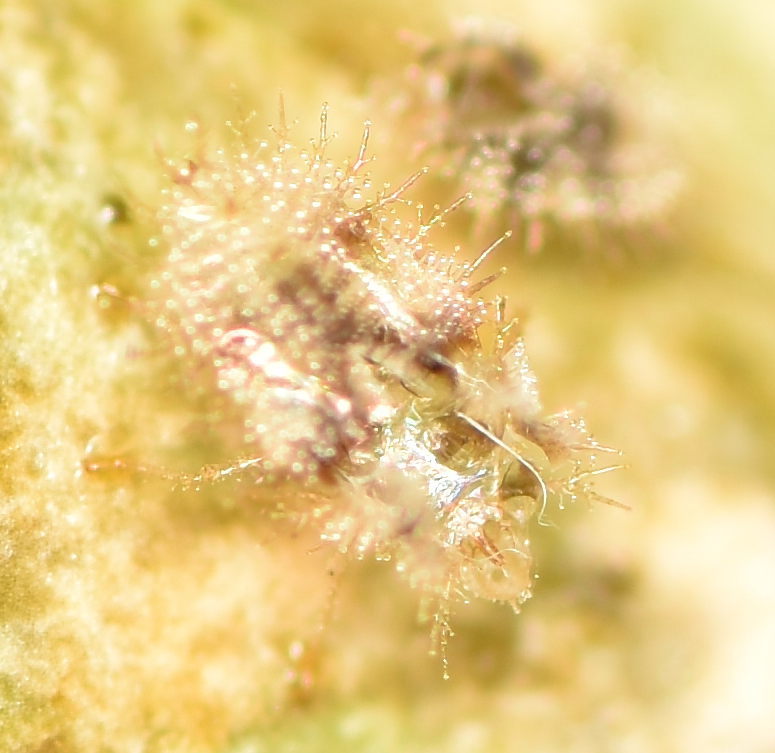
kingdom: Animalia
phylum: Arthropoda
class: Insecta
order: Hemiptera
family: Tingidae
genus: Corythauma
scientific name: Corythauma ayyari
